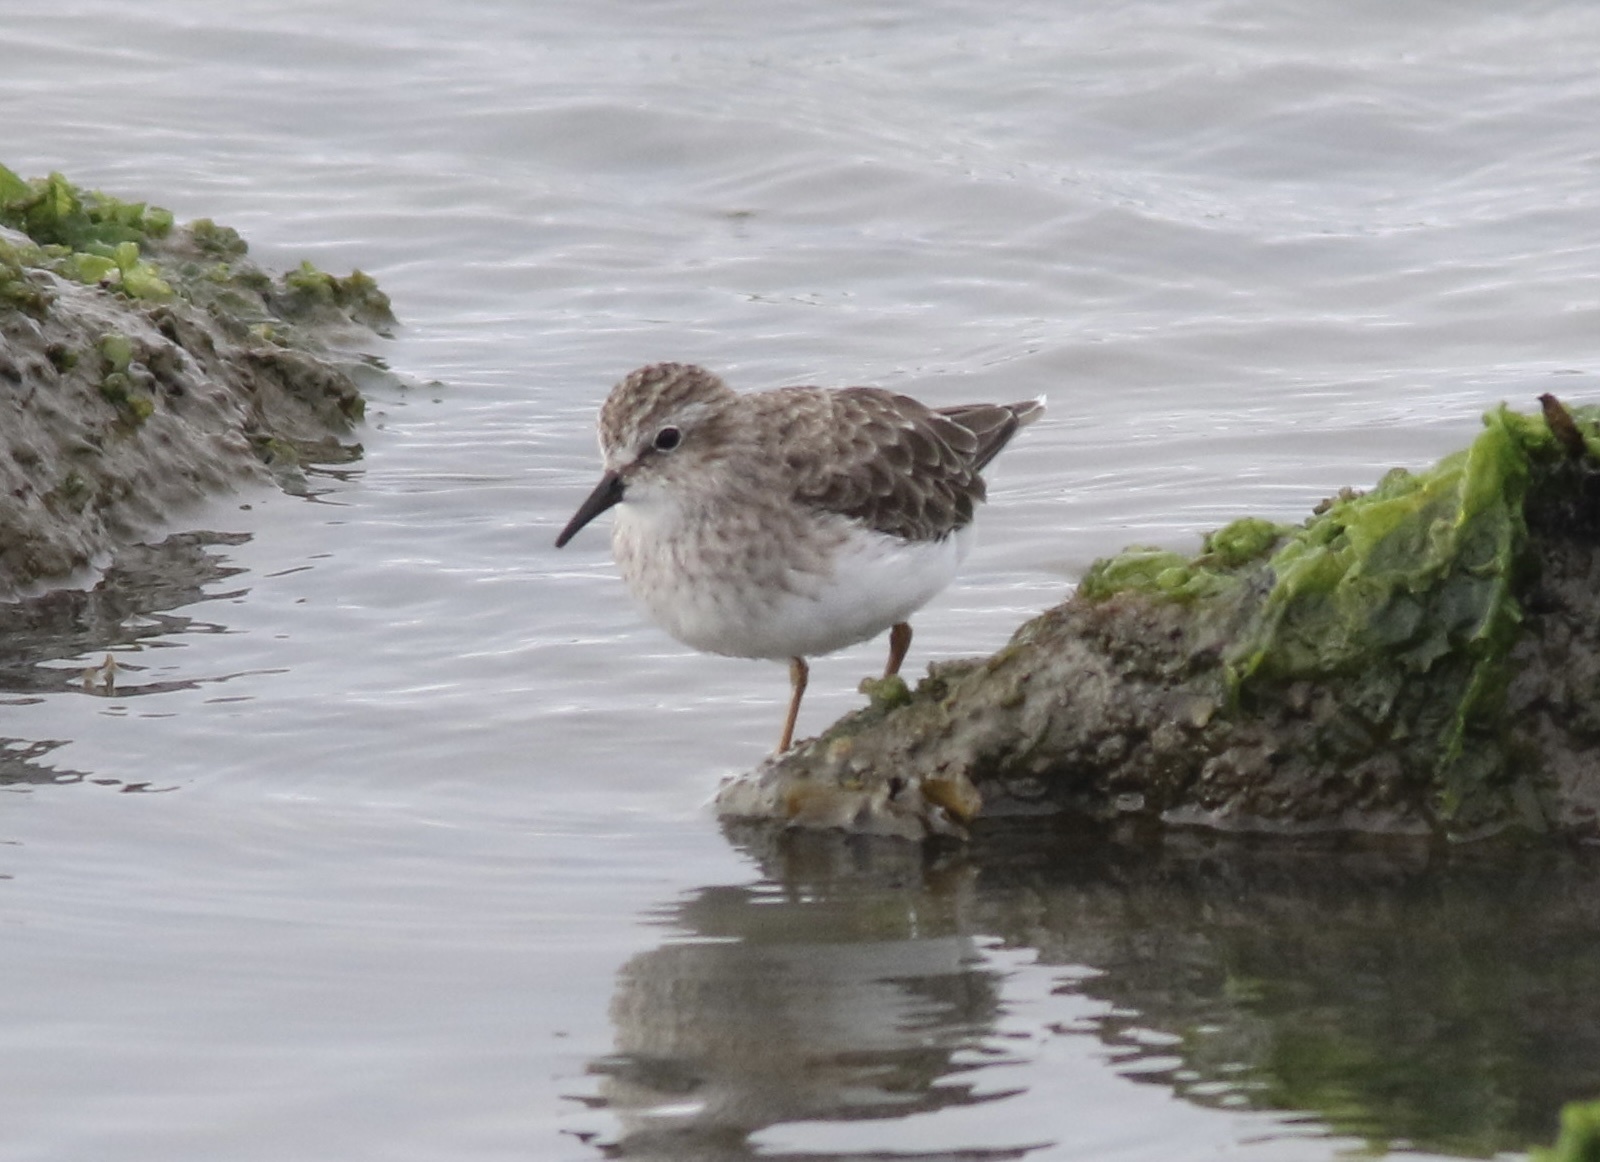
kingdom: Animalia
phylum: Chordata
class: Aves
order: Charadriiformes
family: Scolopacidae
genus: Calidris
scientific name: Calidris minutilla
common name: Least sandpiper
